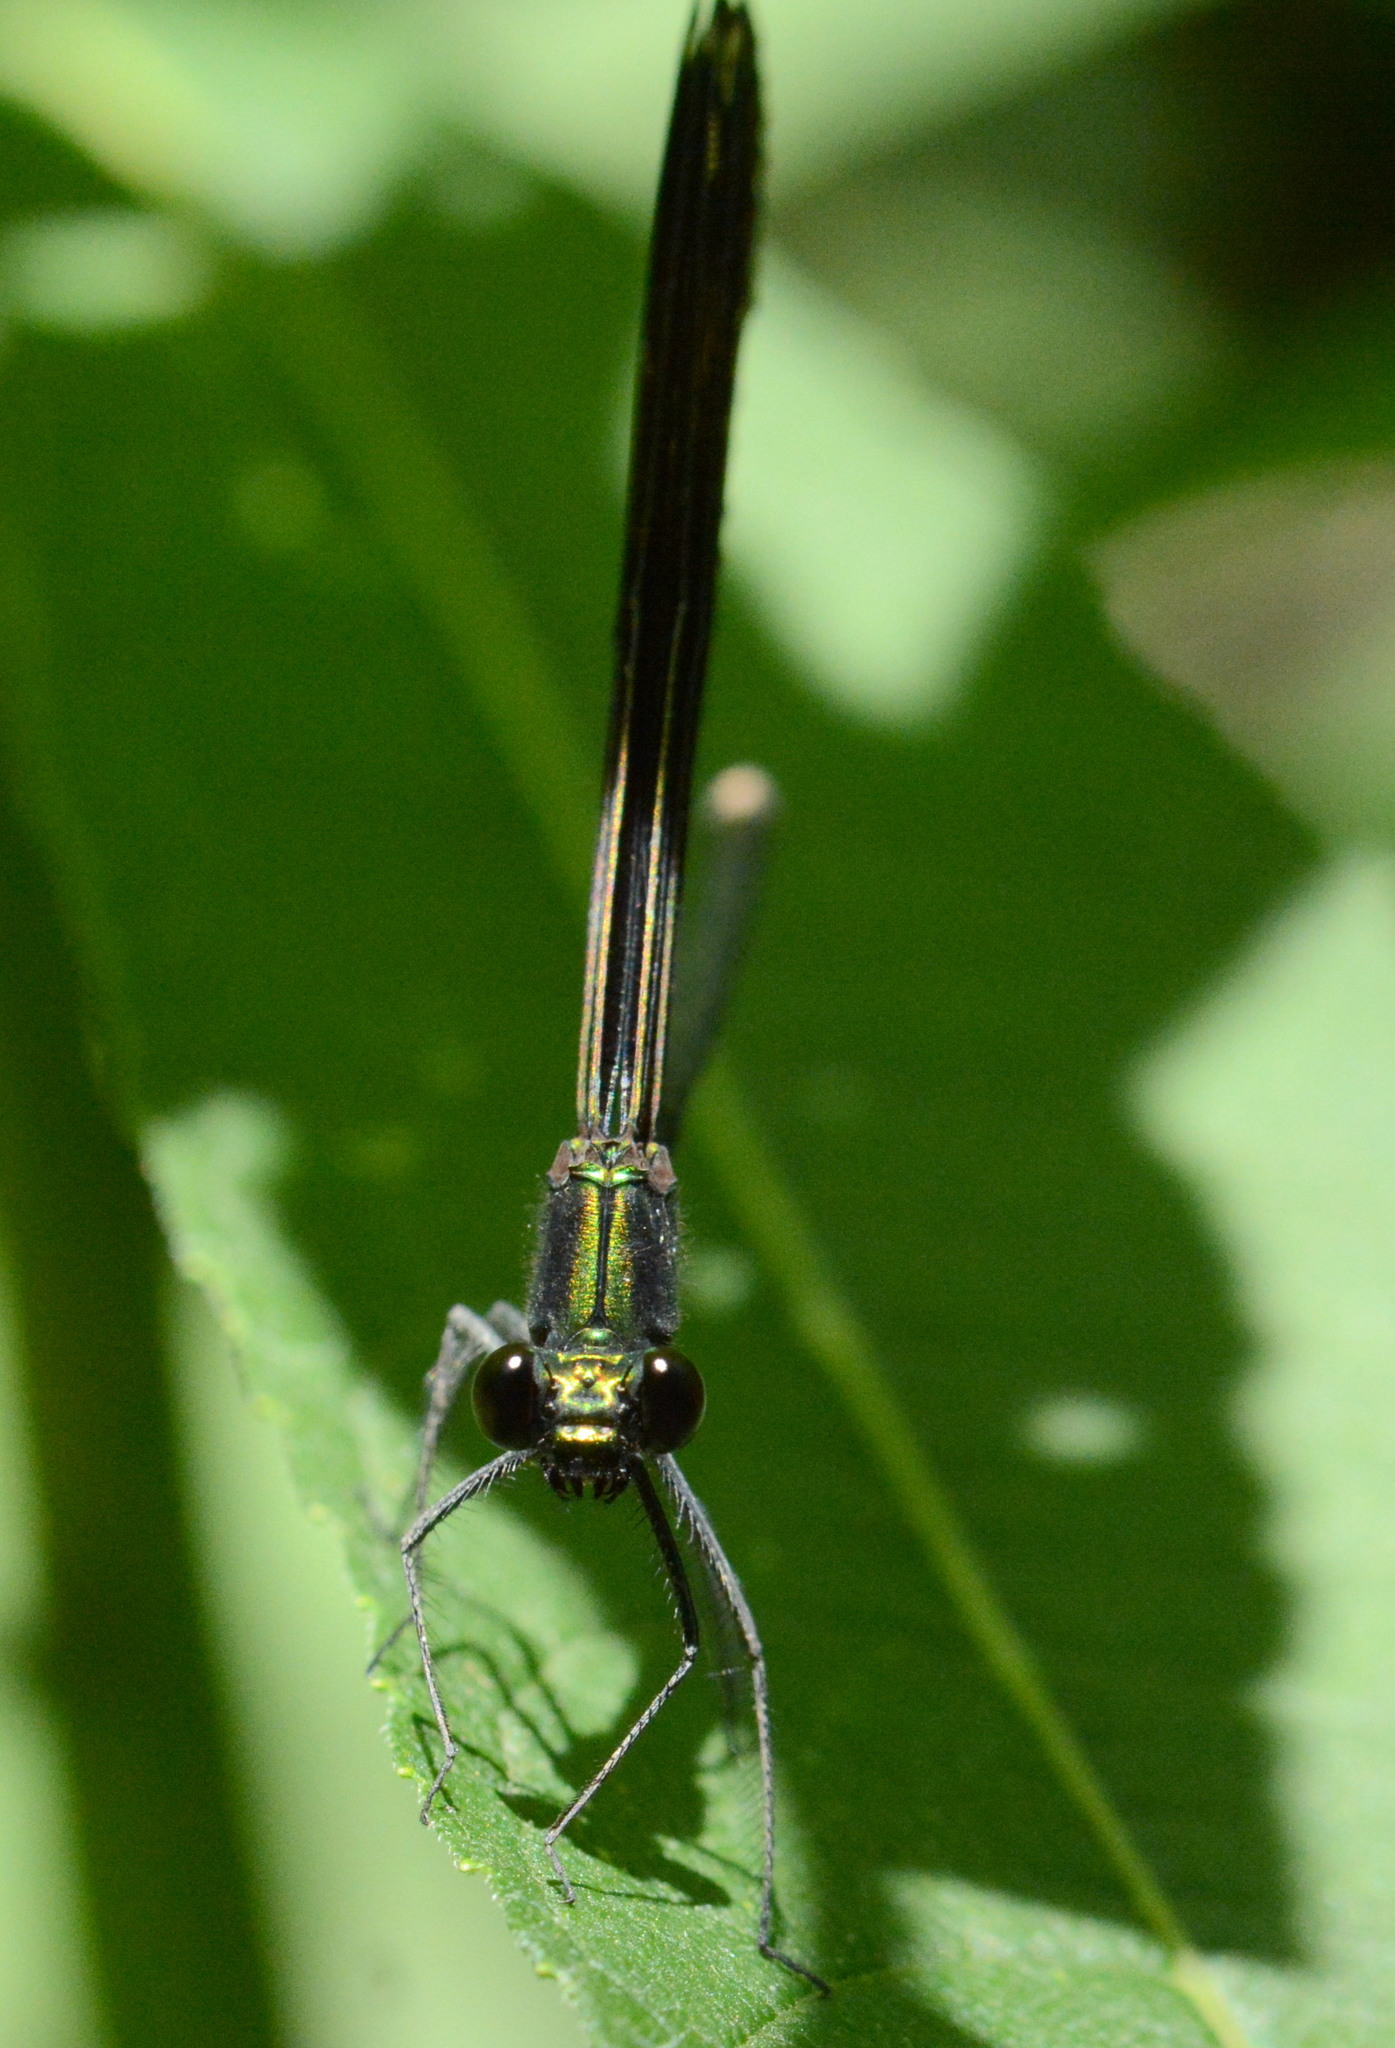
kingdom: Animalia
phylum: Arthropoda
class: Insecta
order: Odonata
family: Calopterygidae
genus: Calopteryx
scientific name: Calopteryx maculata
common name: Ebony jewelwing
